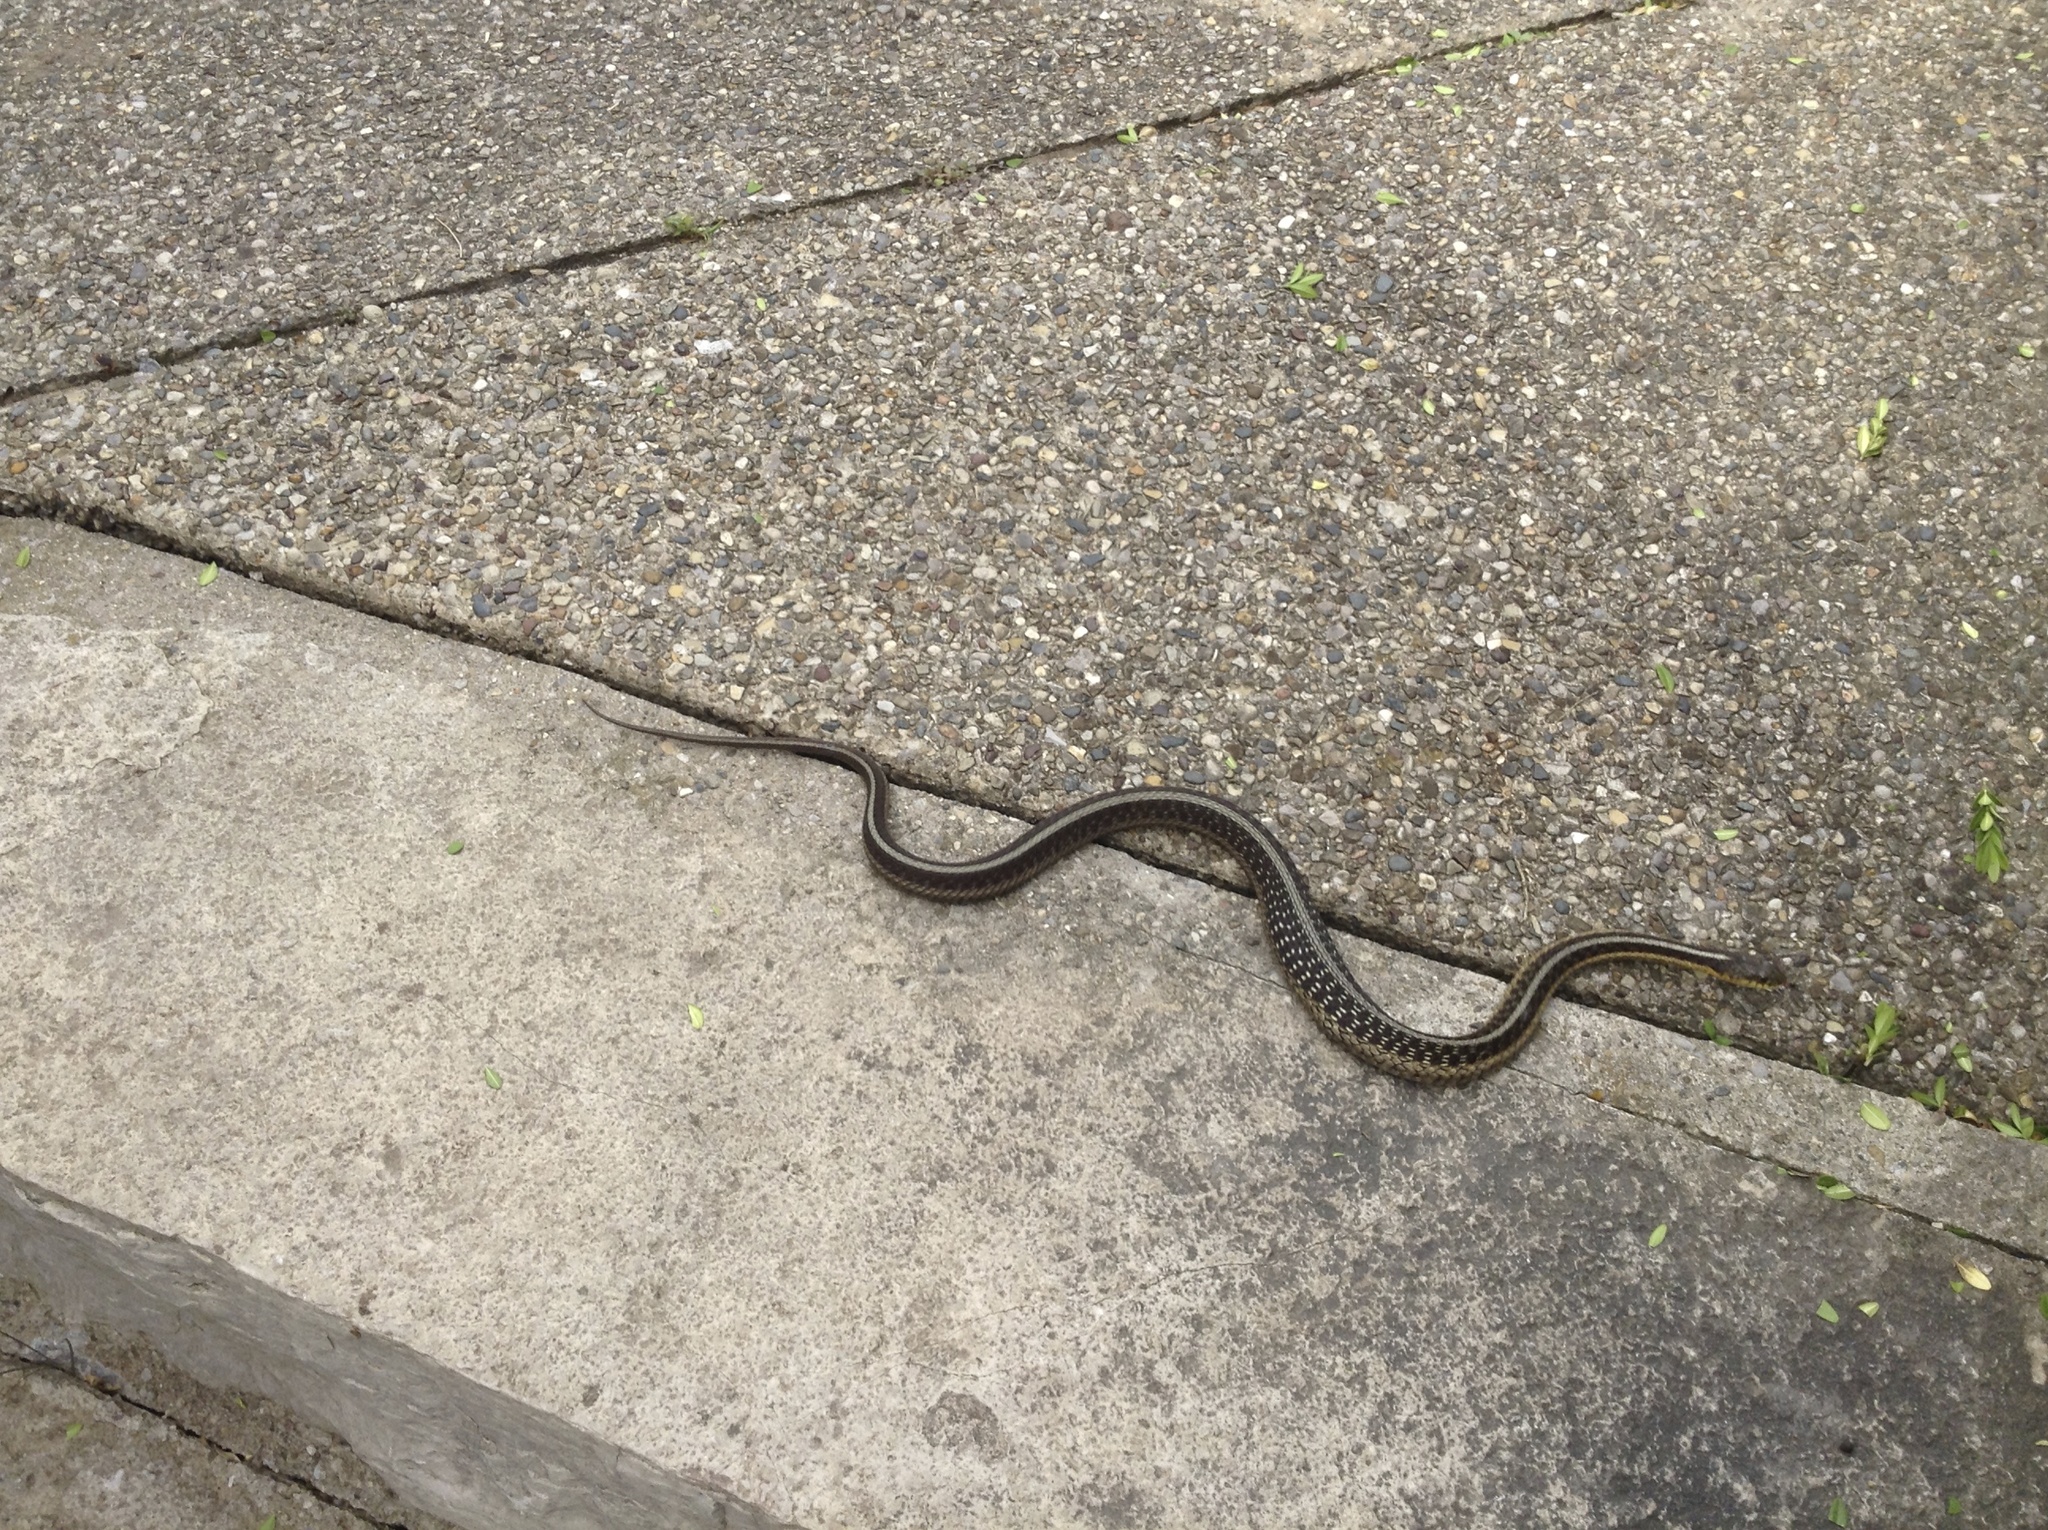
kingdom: Animalia
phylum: Chordata
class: Squamata
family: Colubridae
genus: Thamnophis
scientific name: Thamnophis sirtalis
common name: Common garter snake
